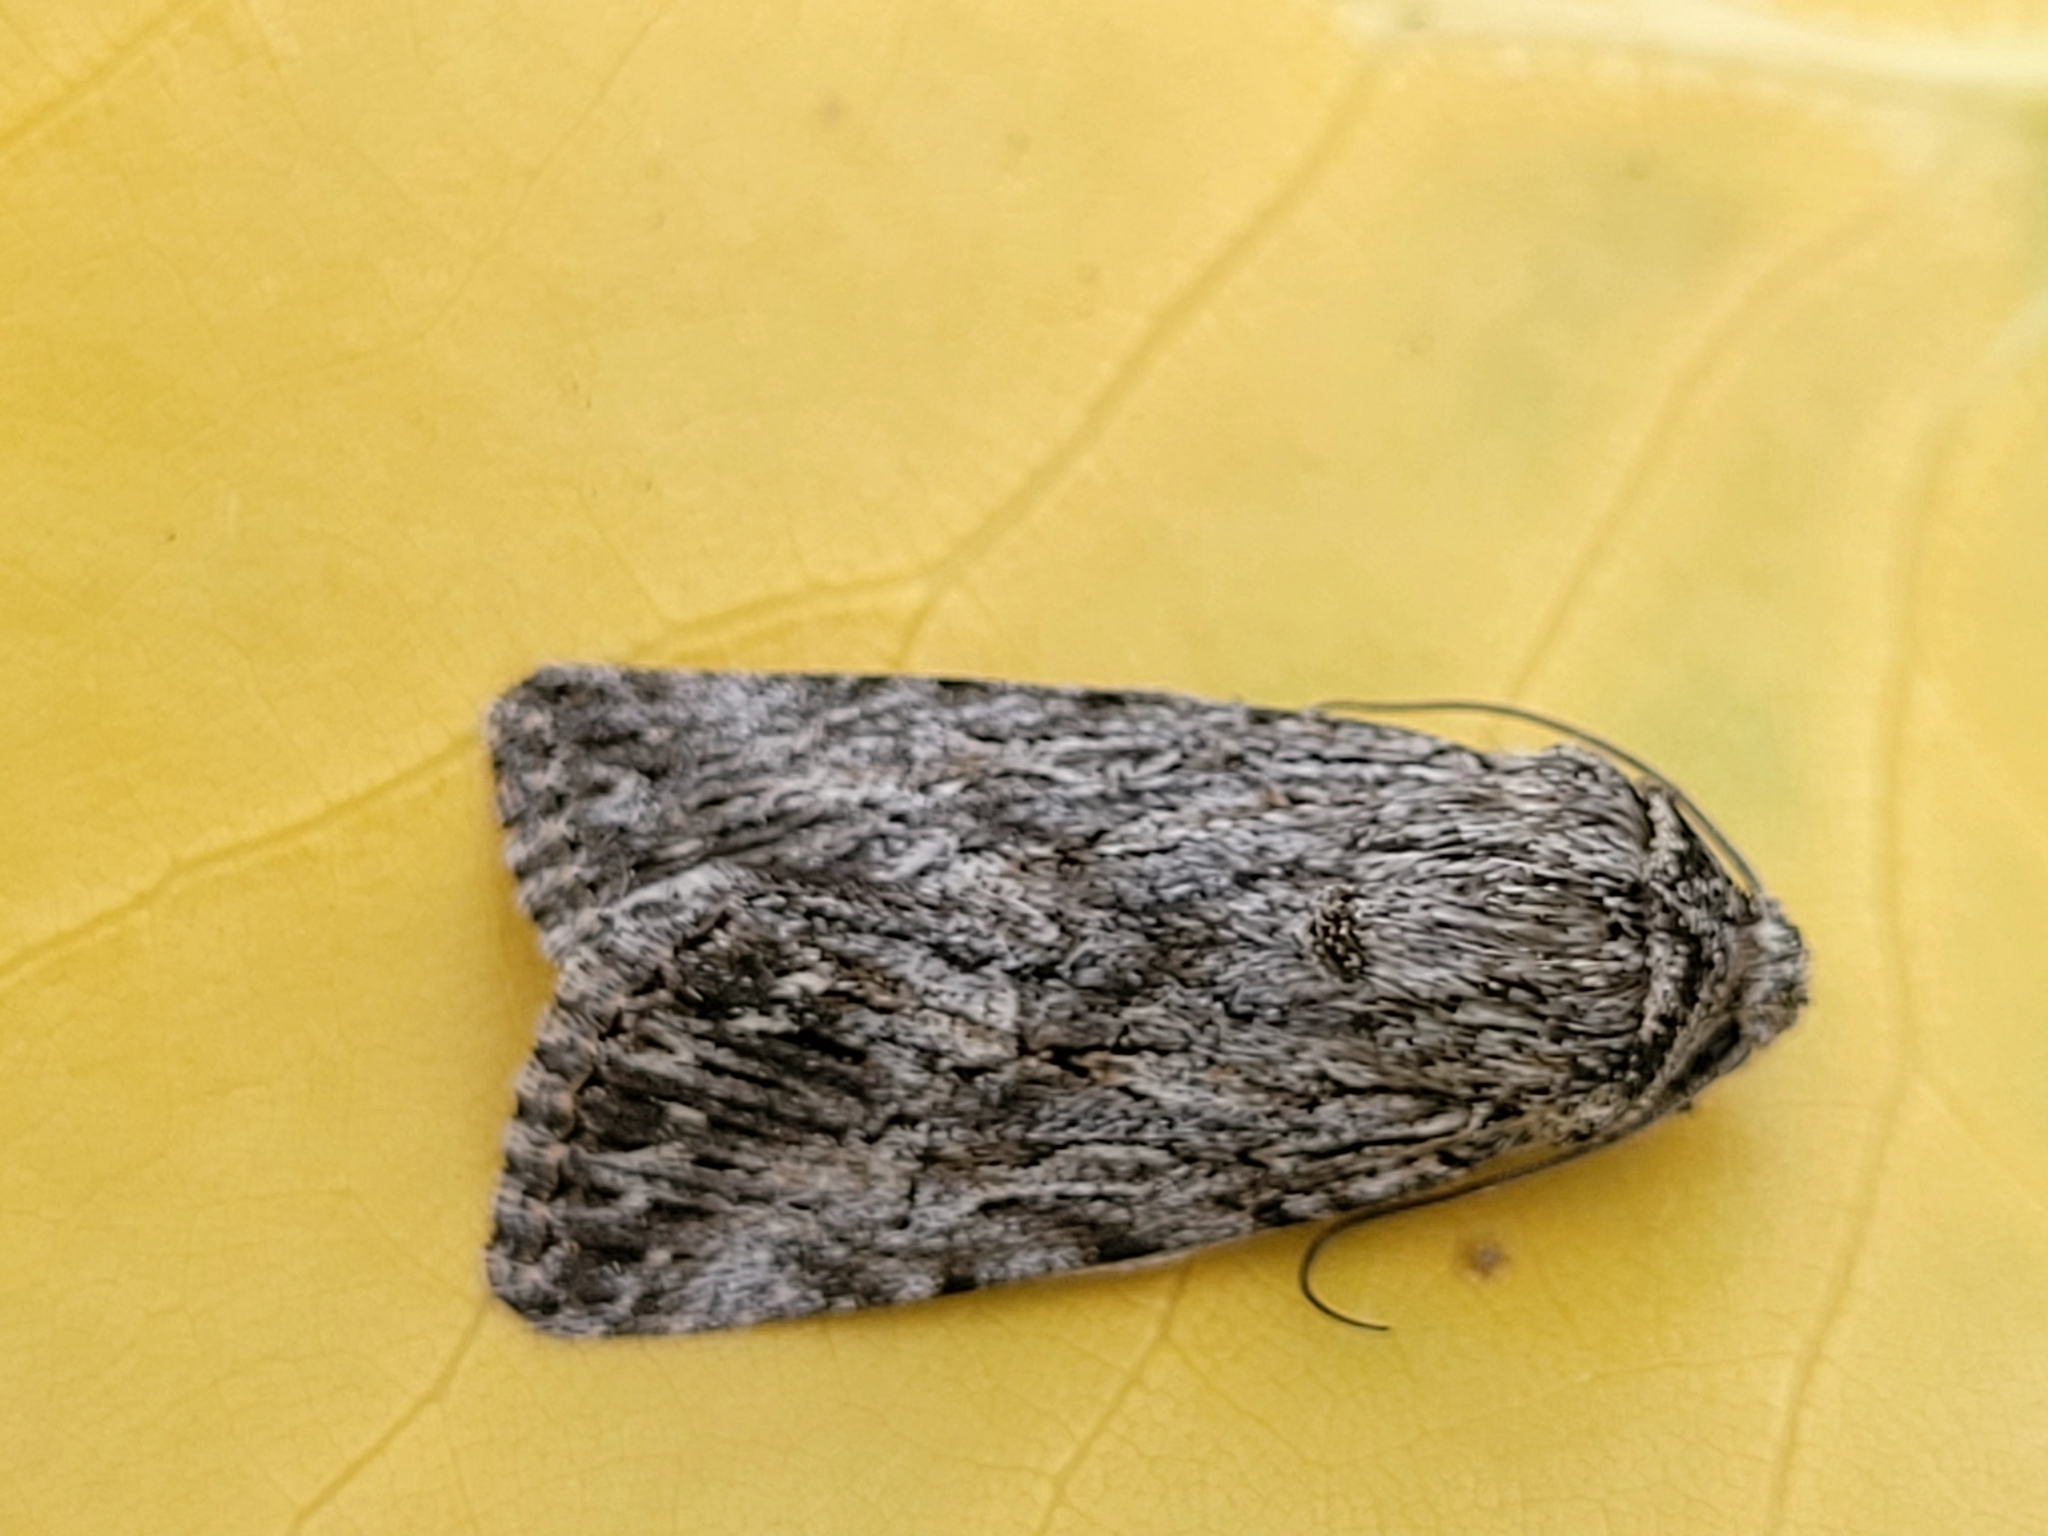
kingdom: Animalia
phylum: Arthropoda
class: Insecta
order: Lepidoptera
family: Noctuidae
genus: Sympistis
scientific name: Sympistis poliochroa
